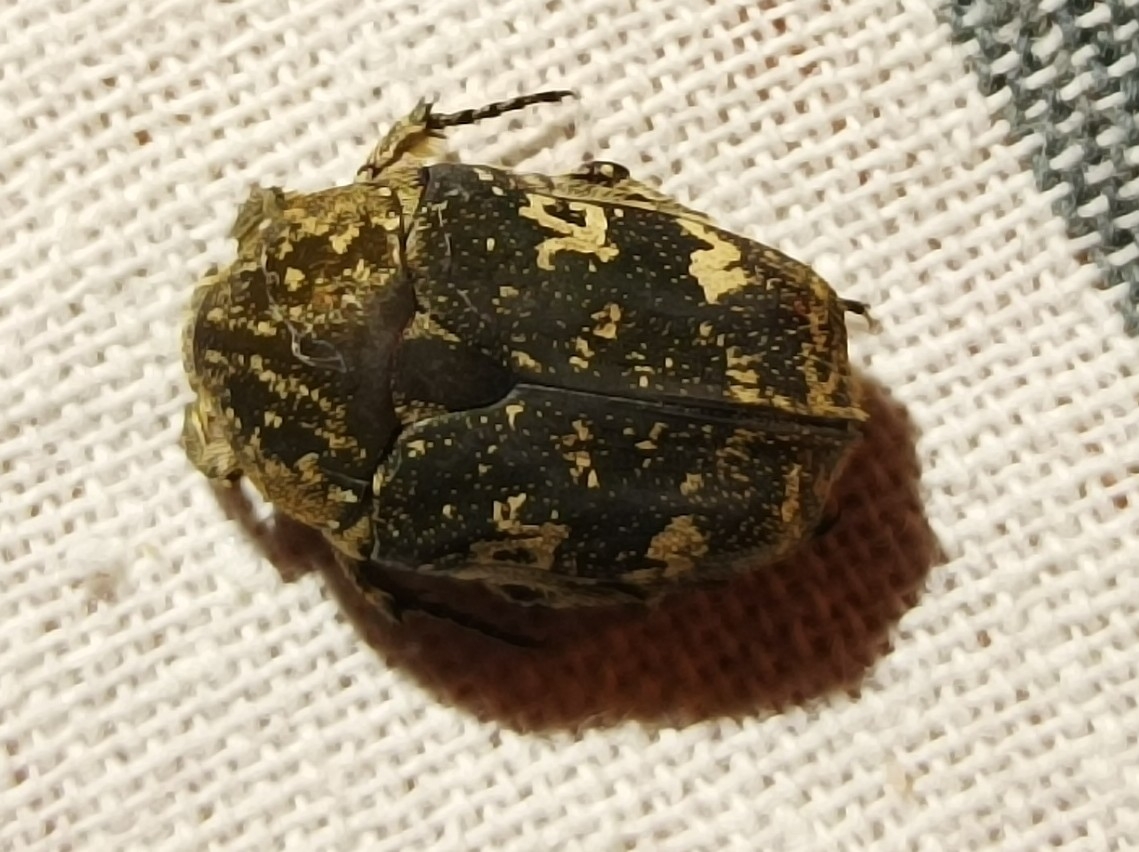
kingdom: Animalia
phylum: Arthropoda
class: Insecta
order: Coleoptera
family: Scarabaeidae
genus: Protaetia
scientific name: Protaetia fusca
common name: Mango flower beetle
